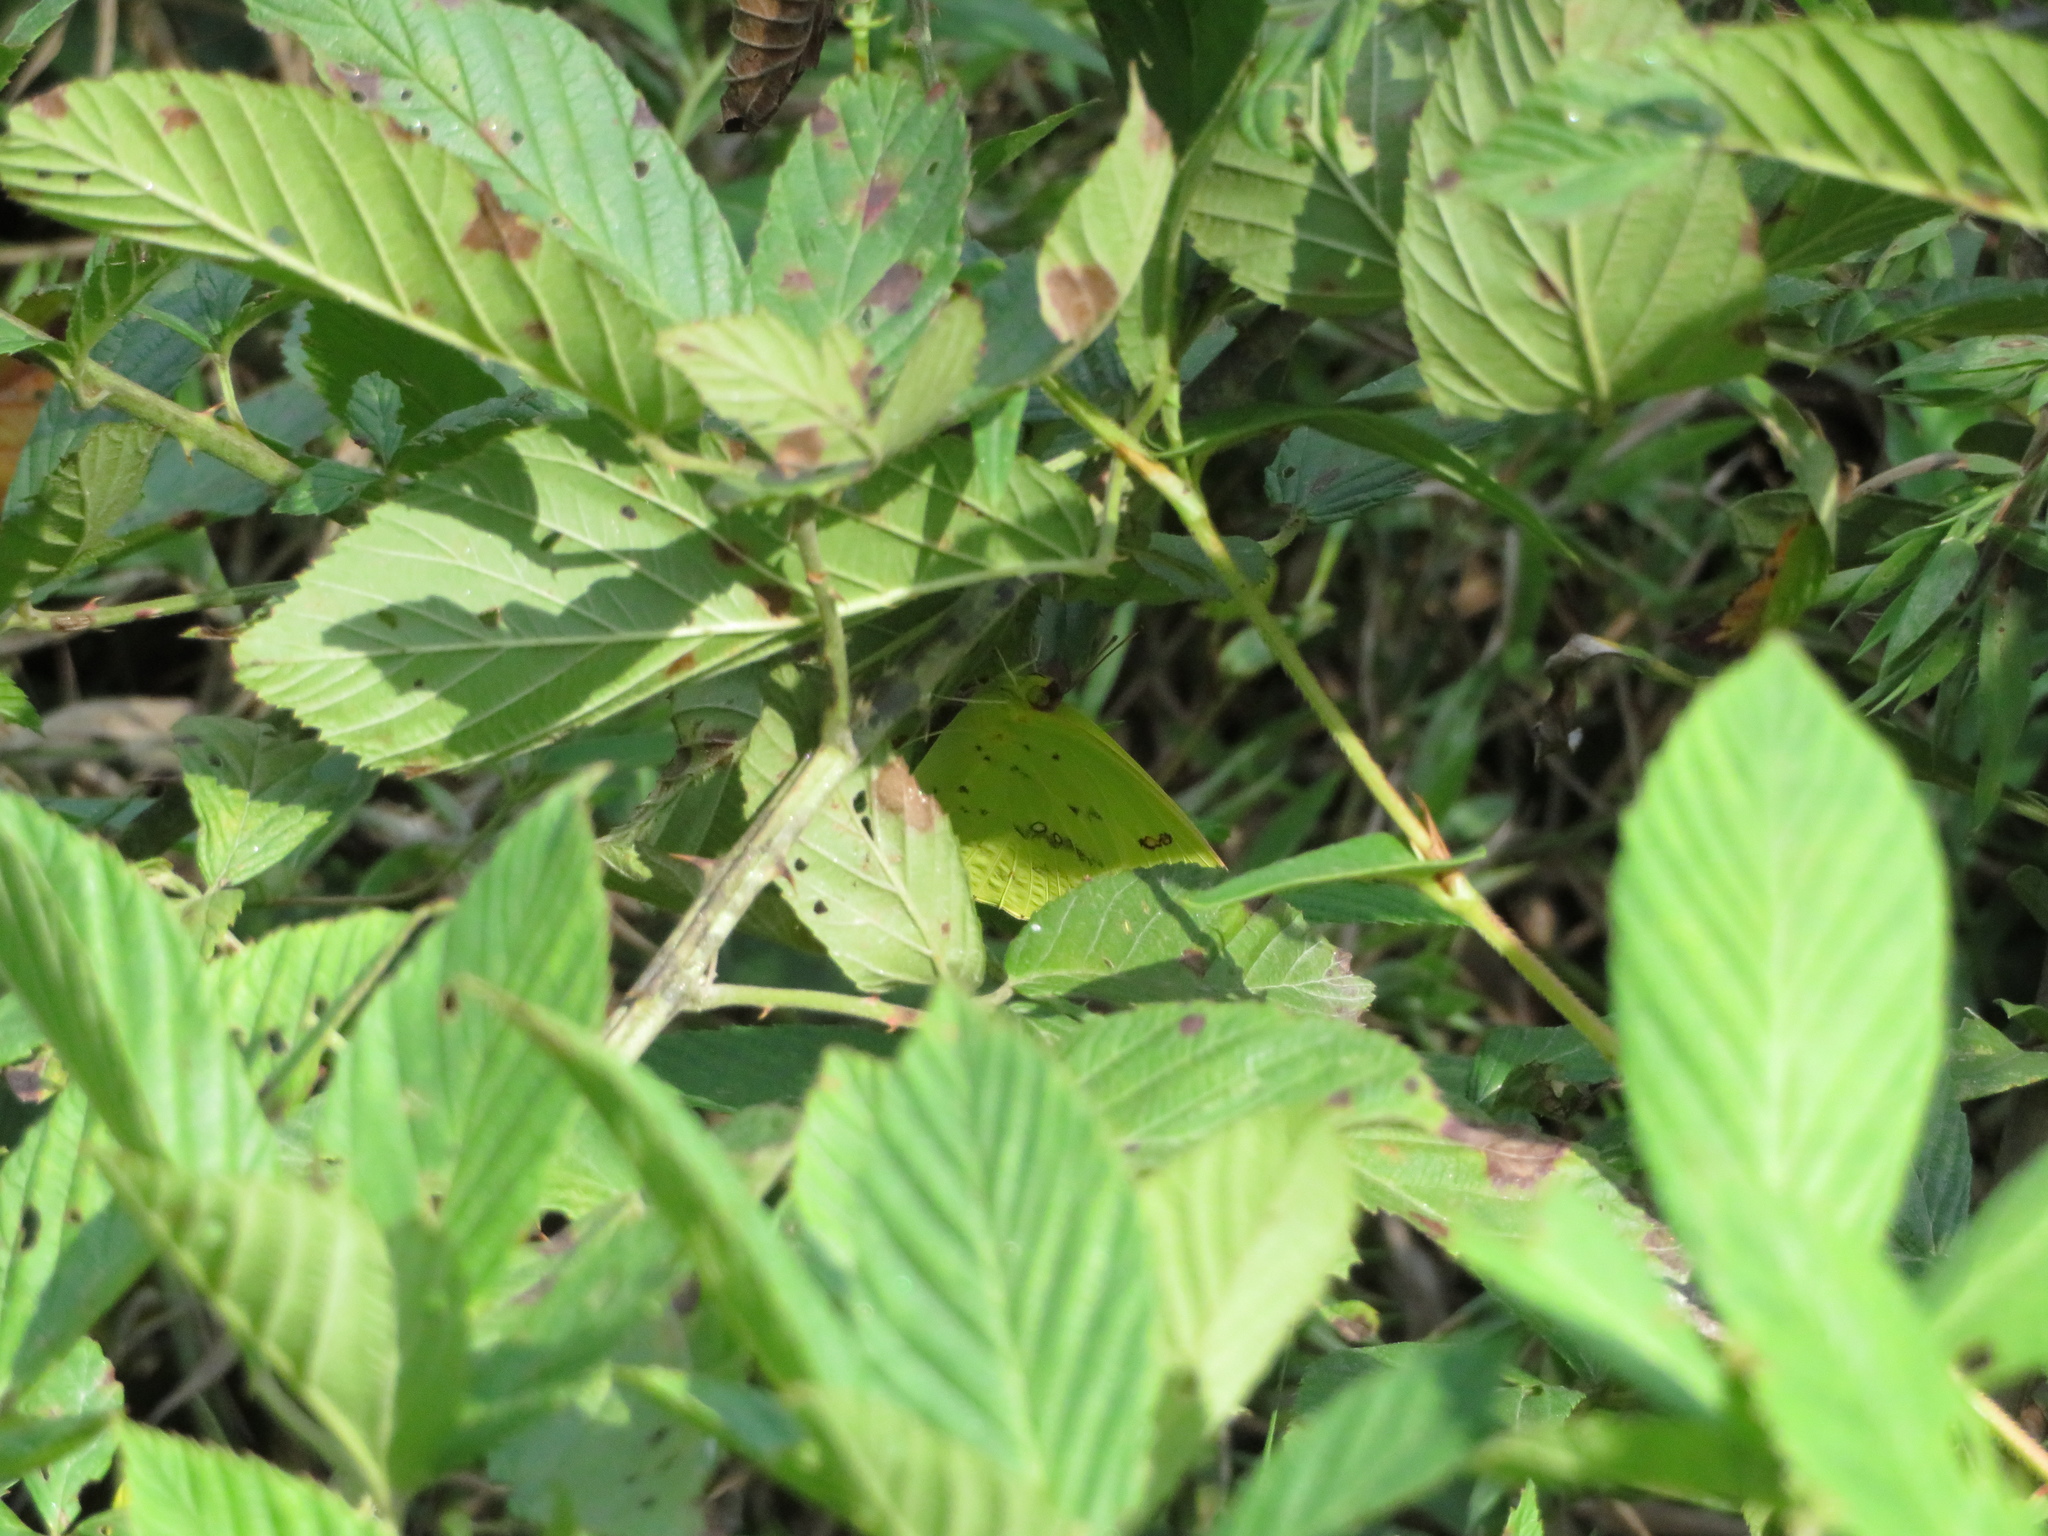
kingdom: Animalia
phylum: Arthropoda
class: Insecta
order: Lepidoptera
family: Pieridae
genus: Phoebis
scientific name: Phoebis sennae
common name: Cloudless sulphur
